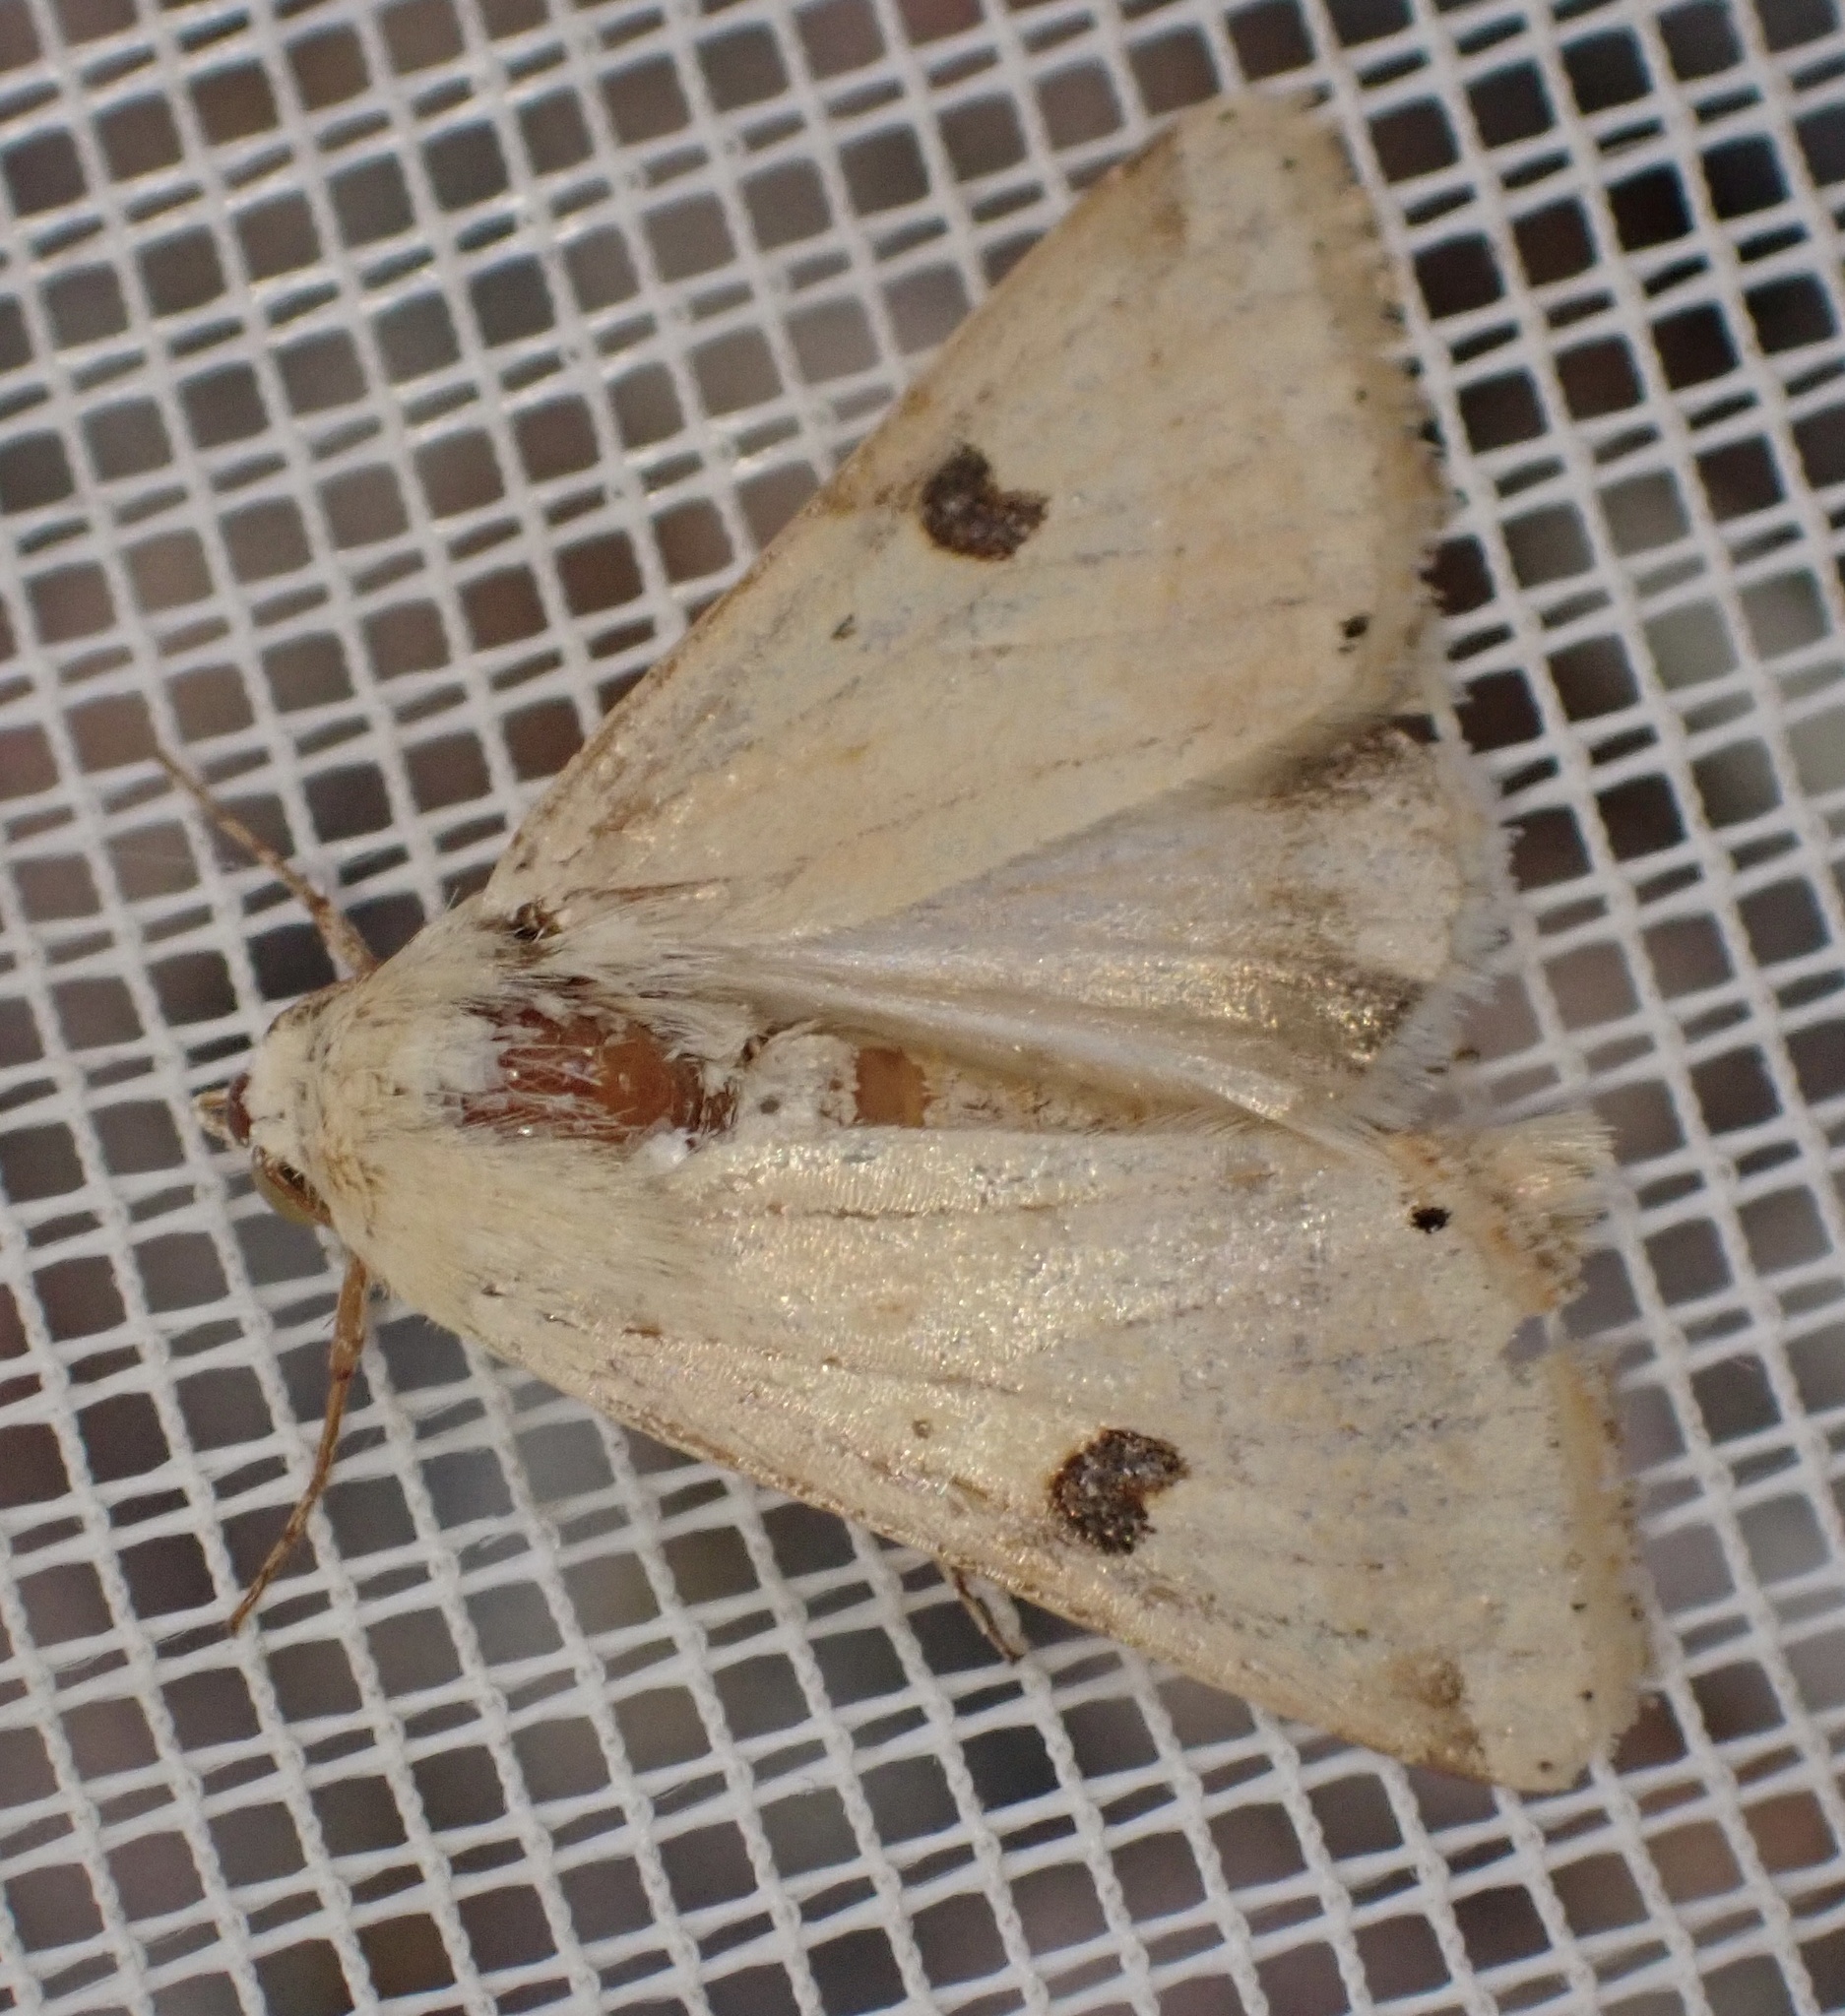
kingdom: Animalia
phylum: Arthropoda
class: Insecta
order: Lepidoptera
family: Noctuidae
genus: Heliothis
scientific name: Heliothis peltigera
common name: Bordered straw
